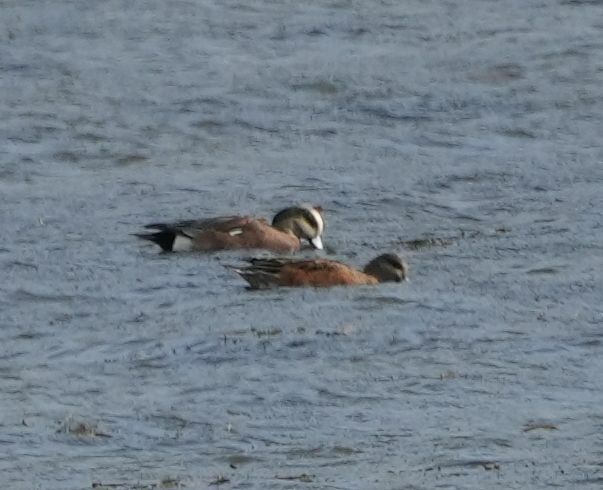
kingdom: Animalia
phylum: Chordata
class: Aves
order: Anseriformes
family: Anatidae
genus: Mareca
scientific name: Mareca americana
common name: American wigeon
